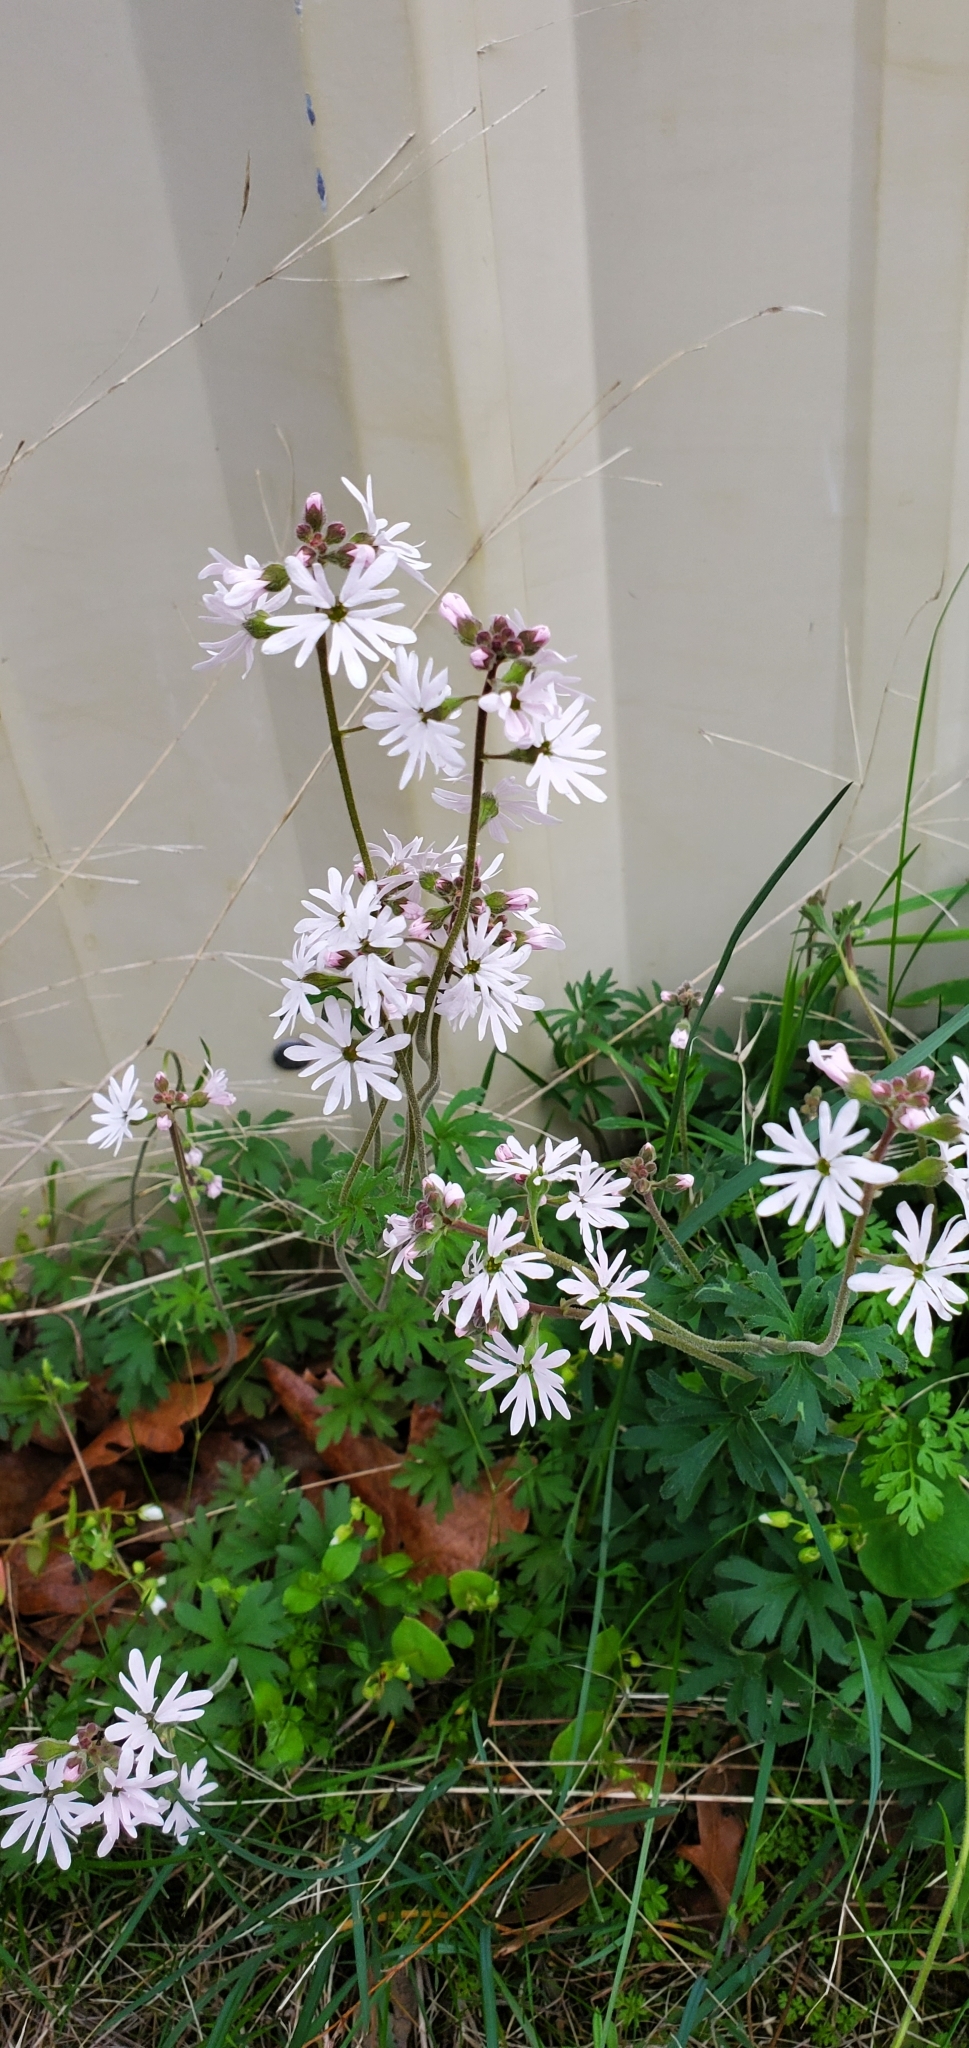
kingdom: Plantae
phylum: Tracheophyta
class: Magnoliopsida
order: Saxifragales
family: Saxifragaceae
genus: Lithophragma
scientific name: Lithophragma parviflorum
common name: Small-flowered fringe-cup
